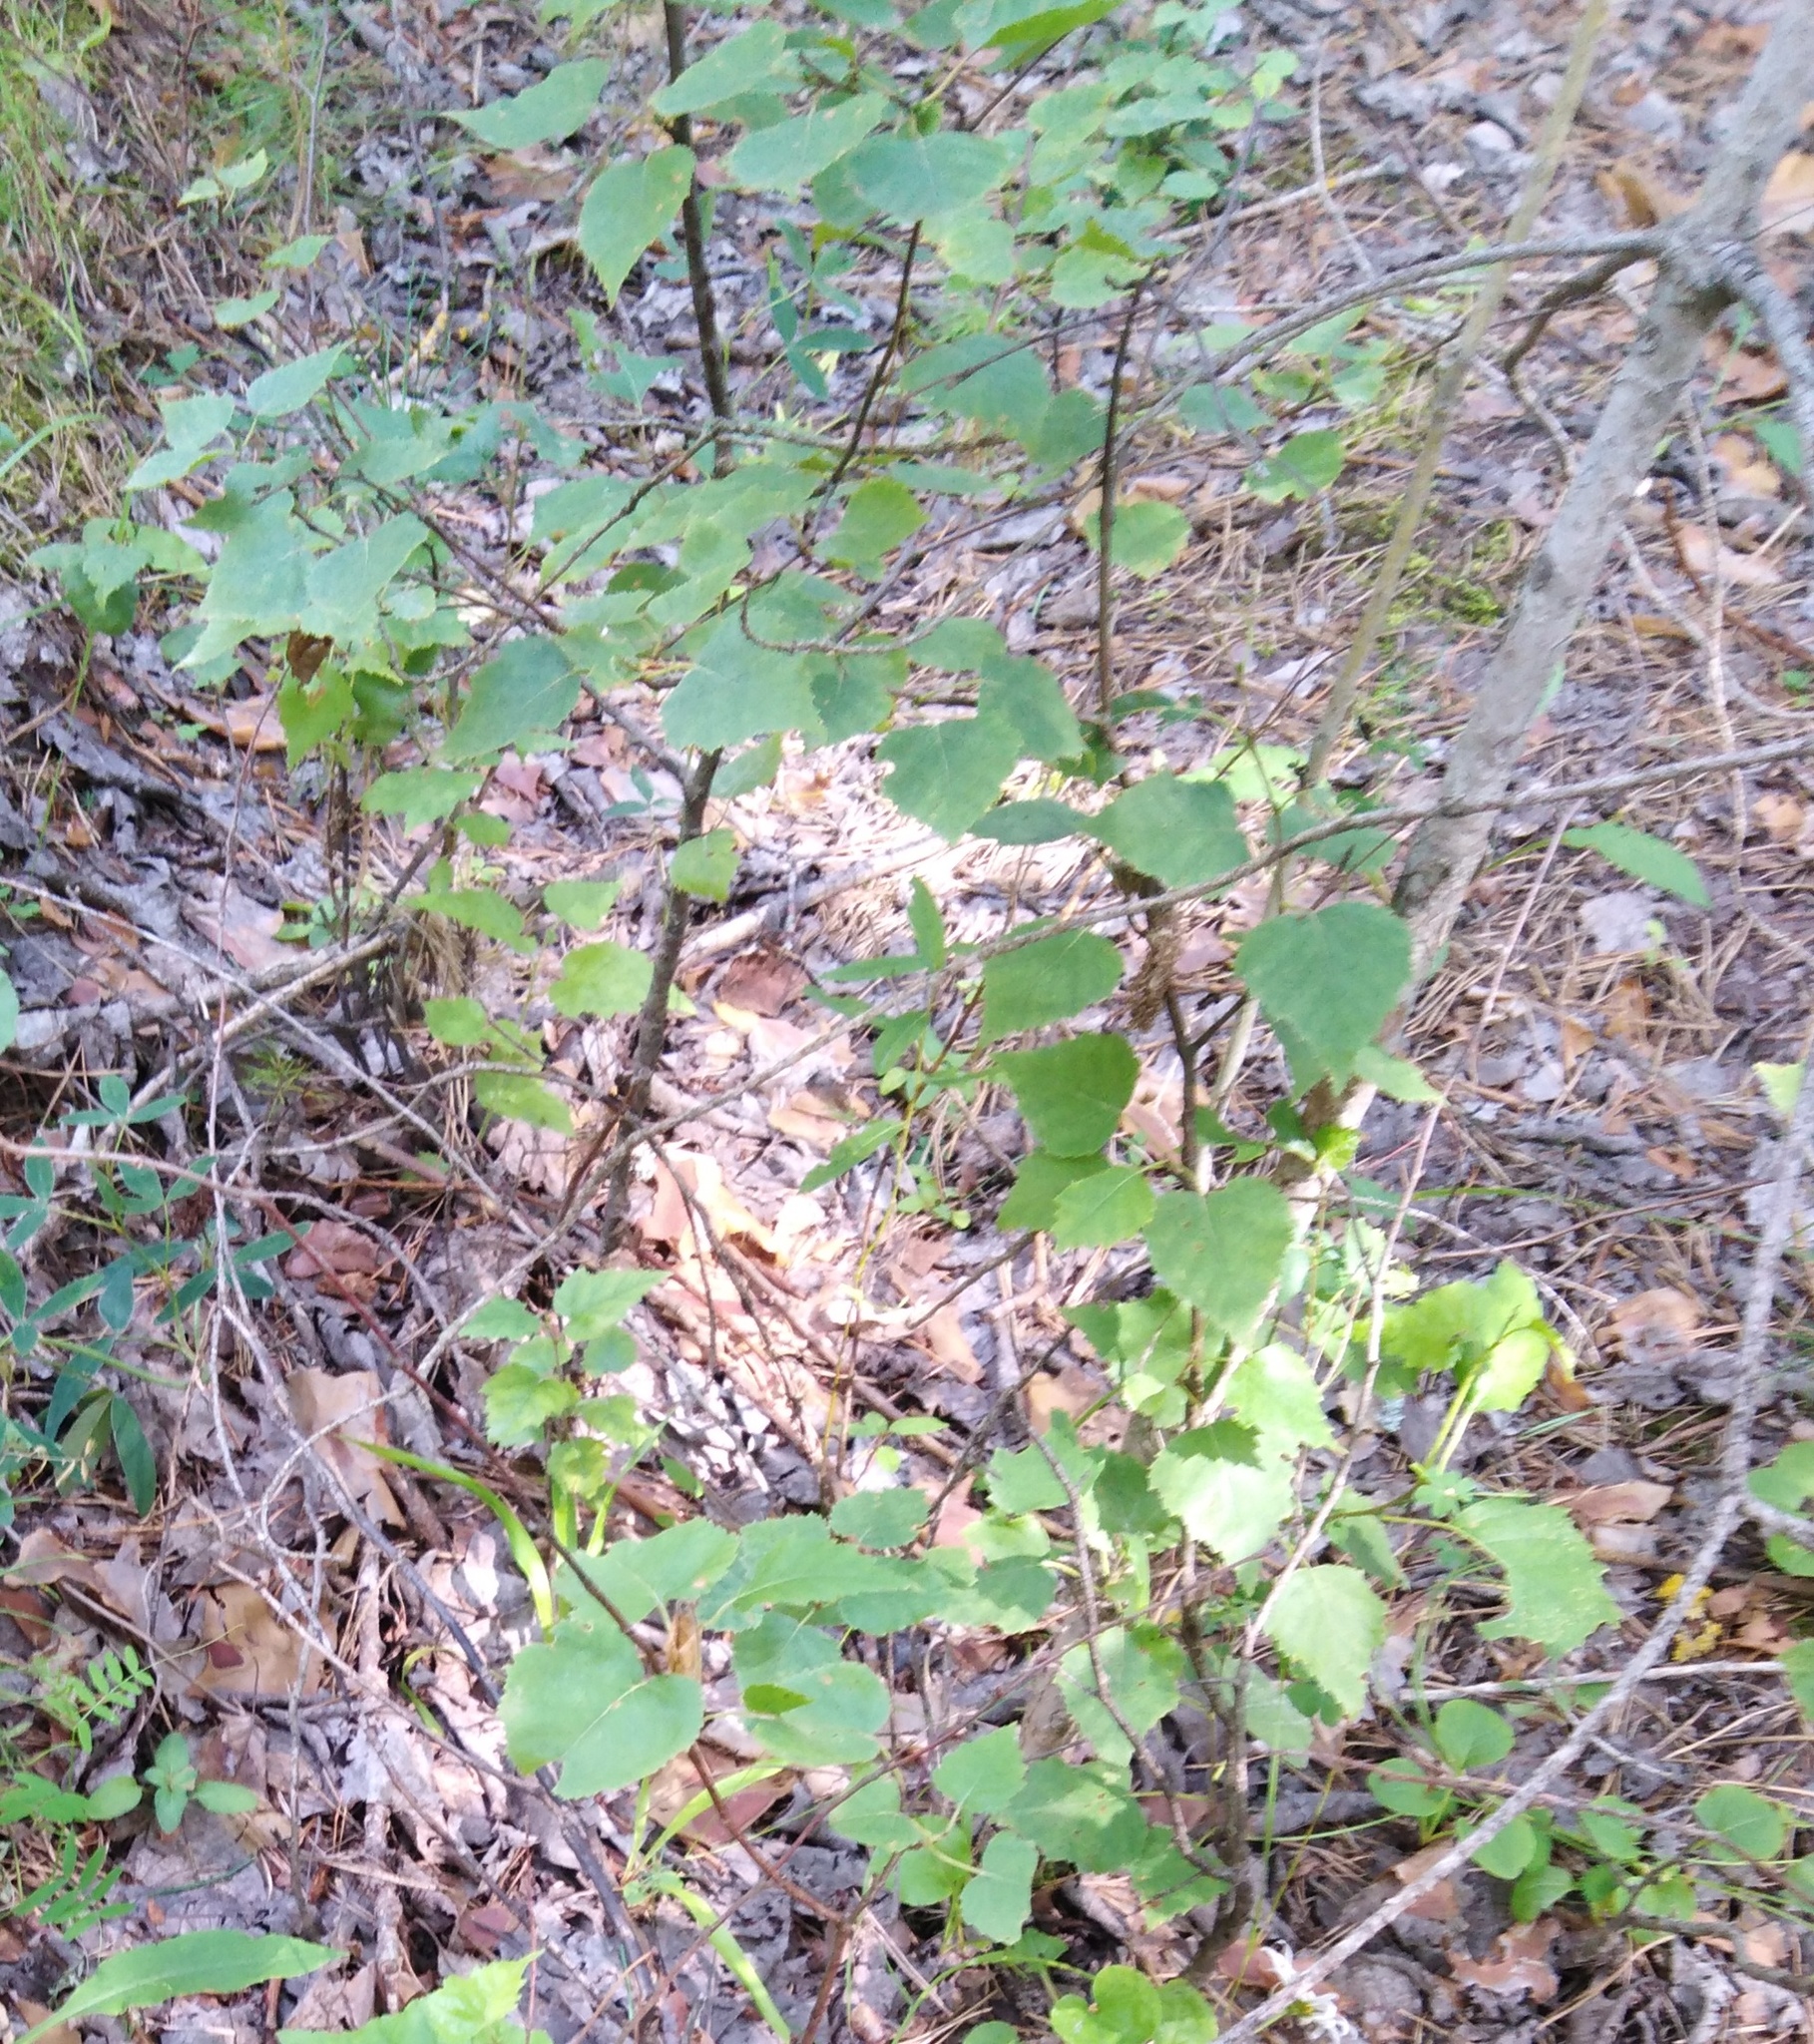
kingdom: Plantae
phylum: Tracheophyta
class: Magnoliopsida
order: Fagales
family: Betulaceae
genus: Betula
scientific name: Betula pendula
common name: Silver birch
